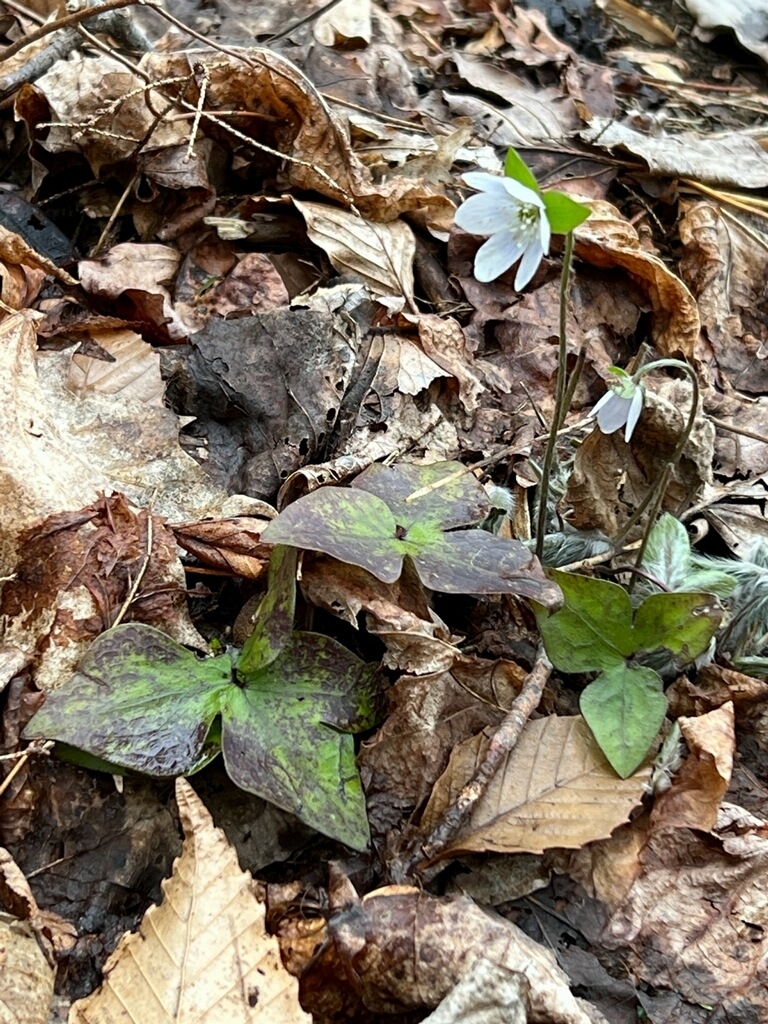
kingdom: Plantae
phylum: Tracheophyta
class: Magnoliopsida
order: Ranunculales
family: Ranunculaceae
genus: Hepatica
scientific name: Hepatica acutiloba
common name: Sharp-lobed hepatica
